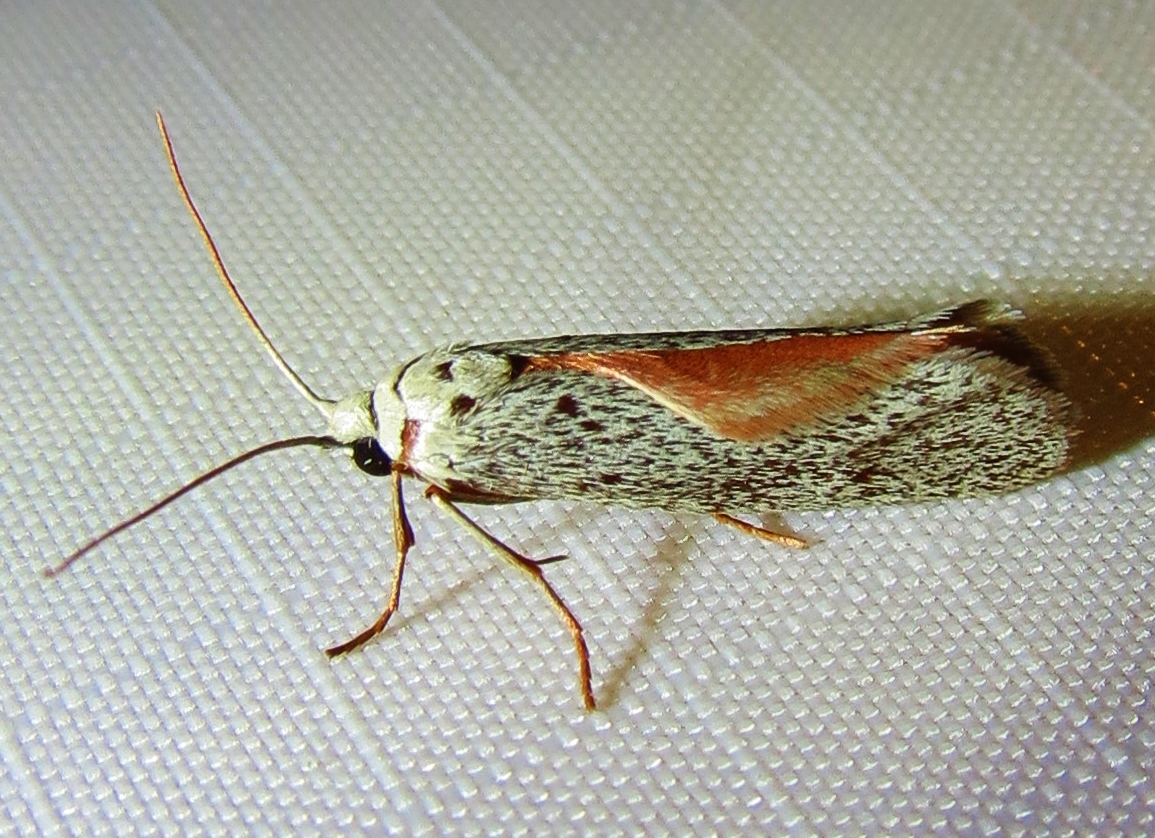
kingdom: Animalia
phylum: Arthropoda
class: Insecta
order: Lepidoptera
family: Lacturidae
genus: Lactura
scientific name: Lactura
